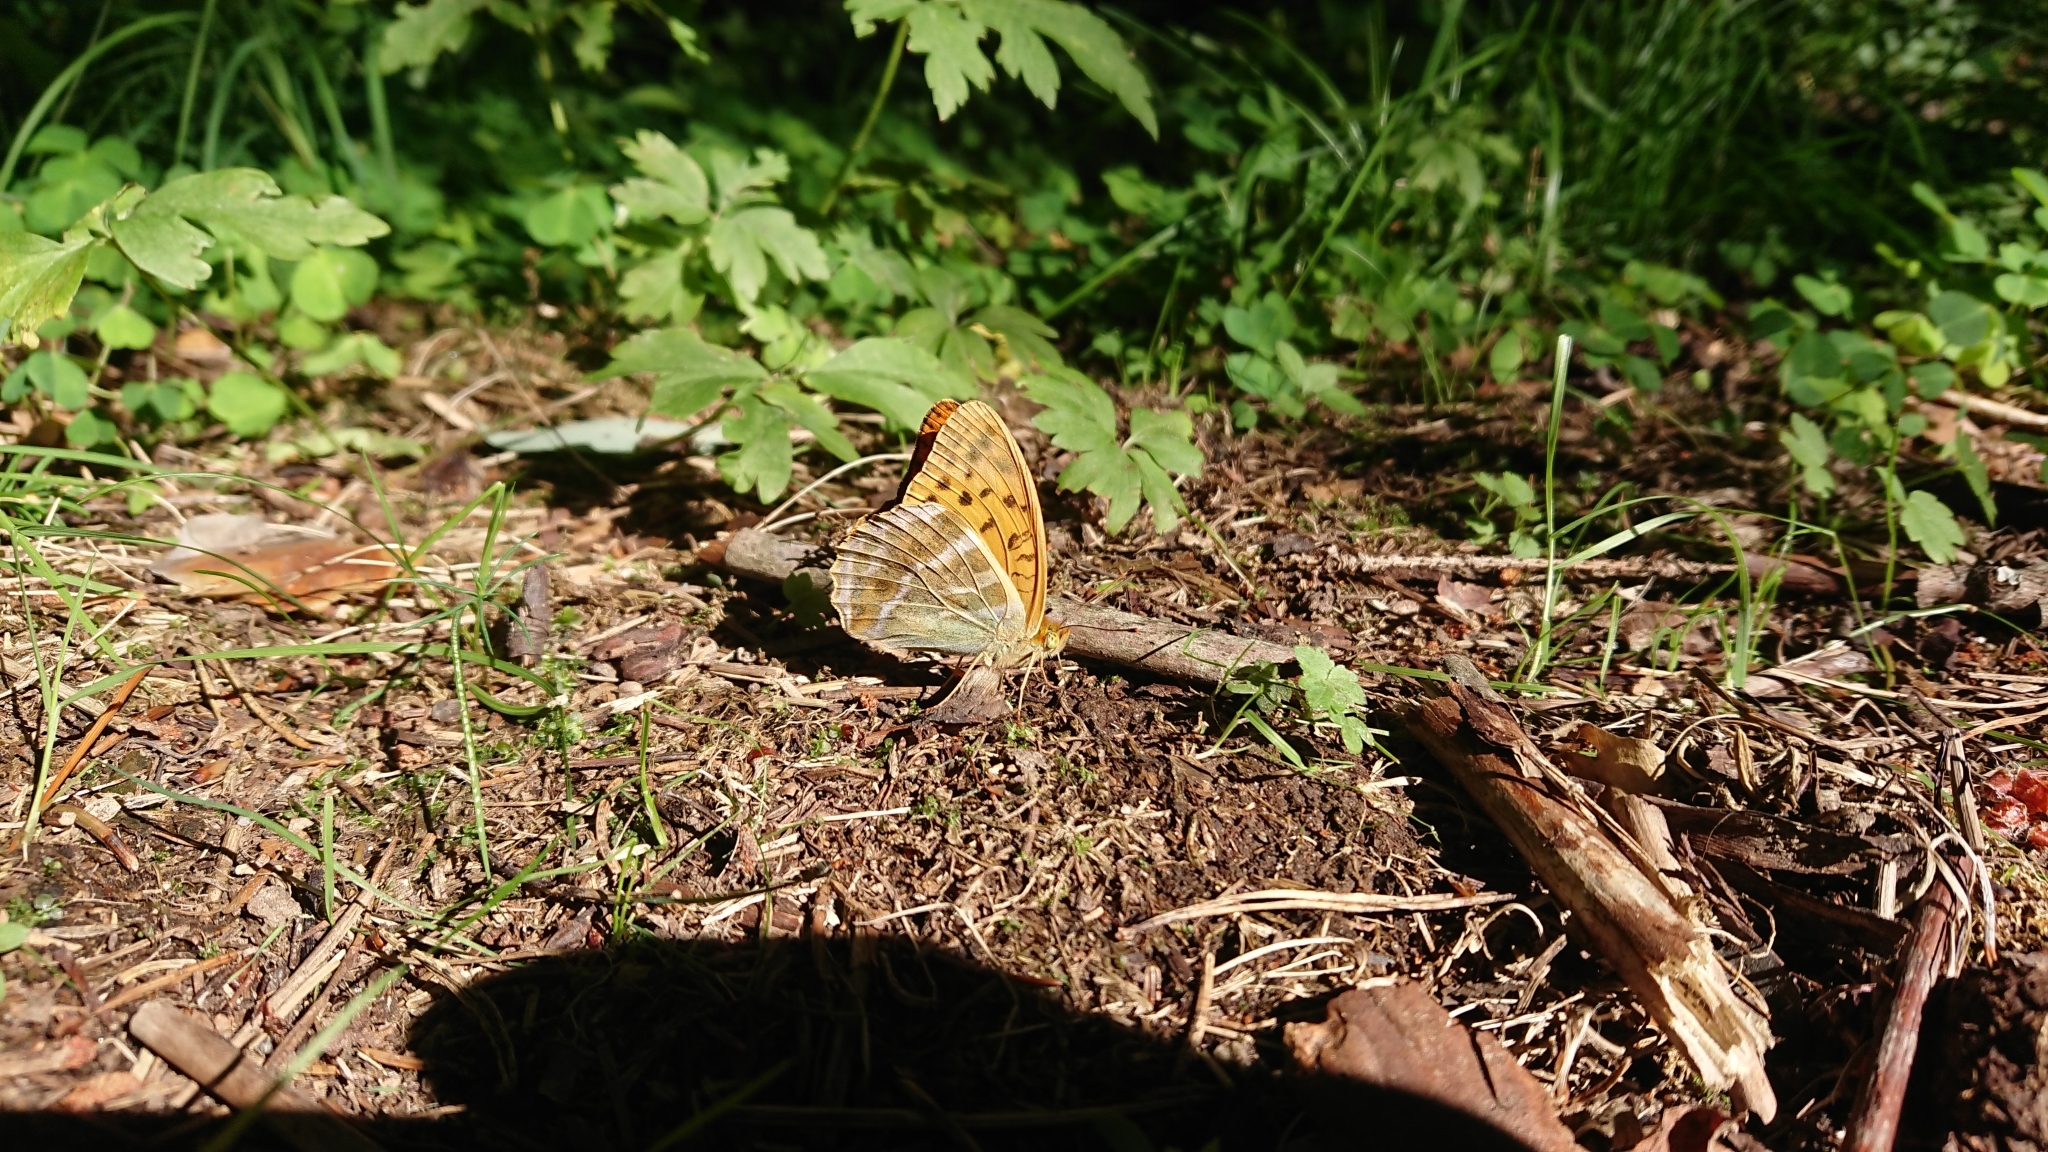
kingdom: Animalia
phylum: Arthropoda
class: Insecta
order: Lepidoptera
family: Nymphalidae
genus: Argynnis
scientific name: Argynnis paphia
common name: Silver-washed fritillary
